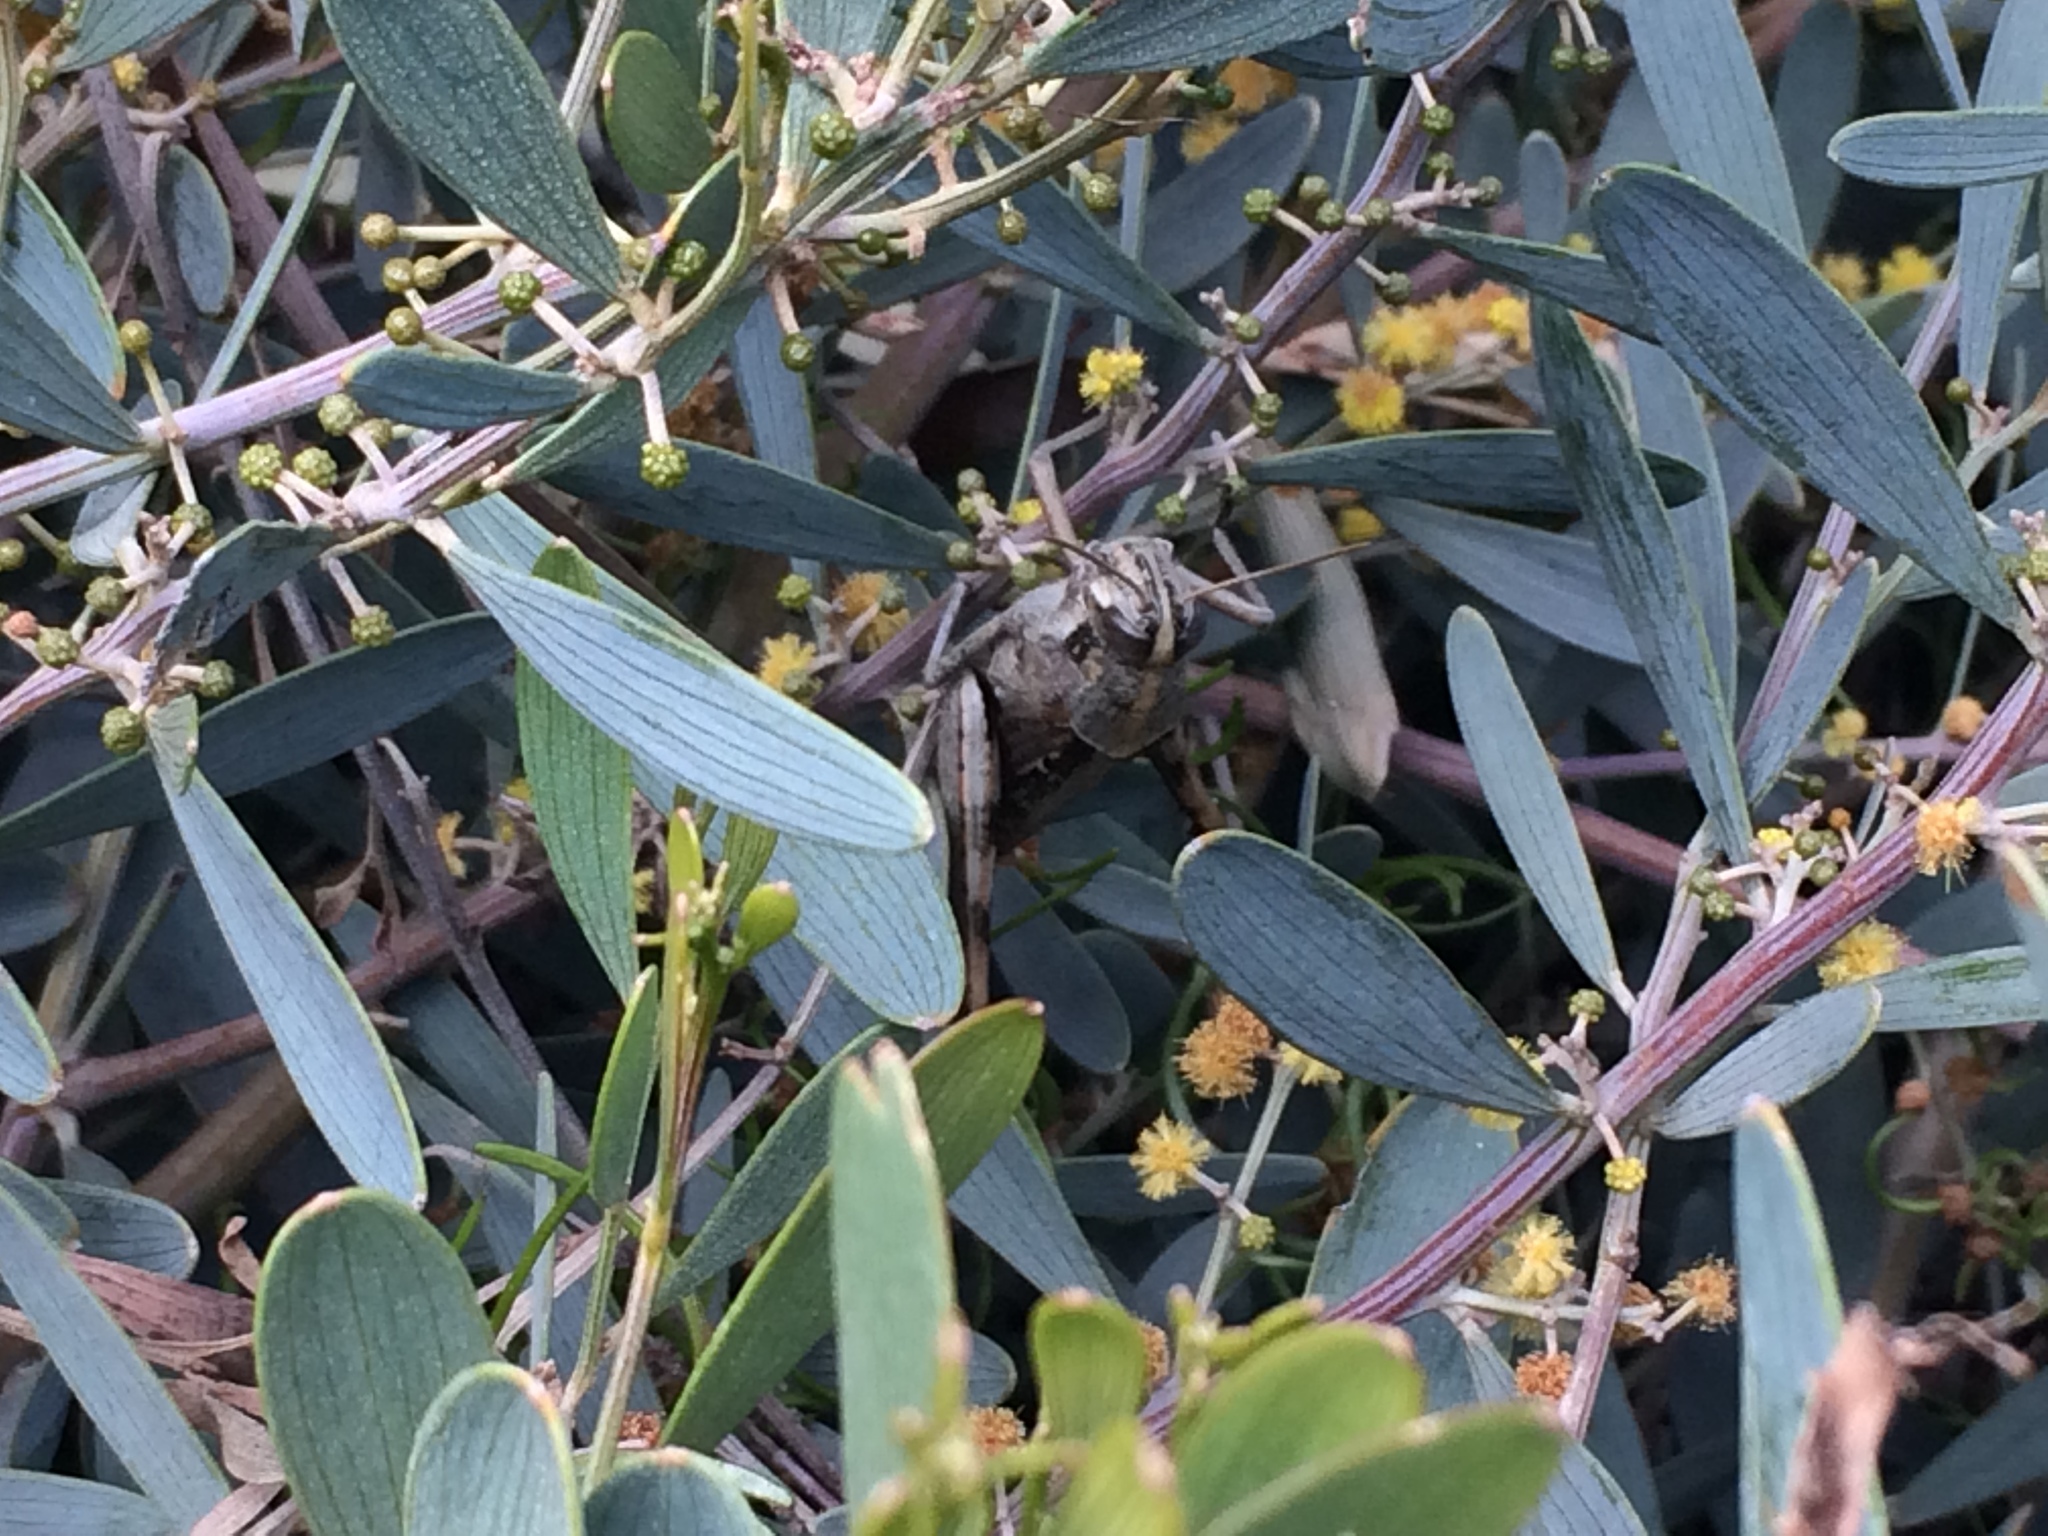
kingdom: Animalia
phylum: Arthropoda
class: Insecta
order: Orthoptera
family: Acrididae
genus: Schistocerca
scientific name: Schistocerca nitens
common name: Vagrant grasshopper
